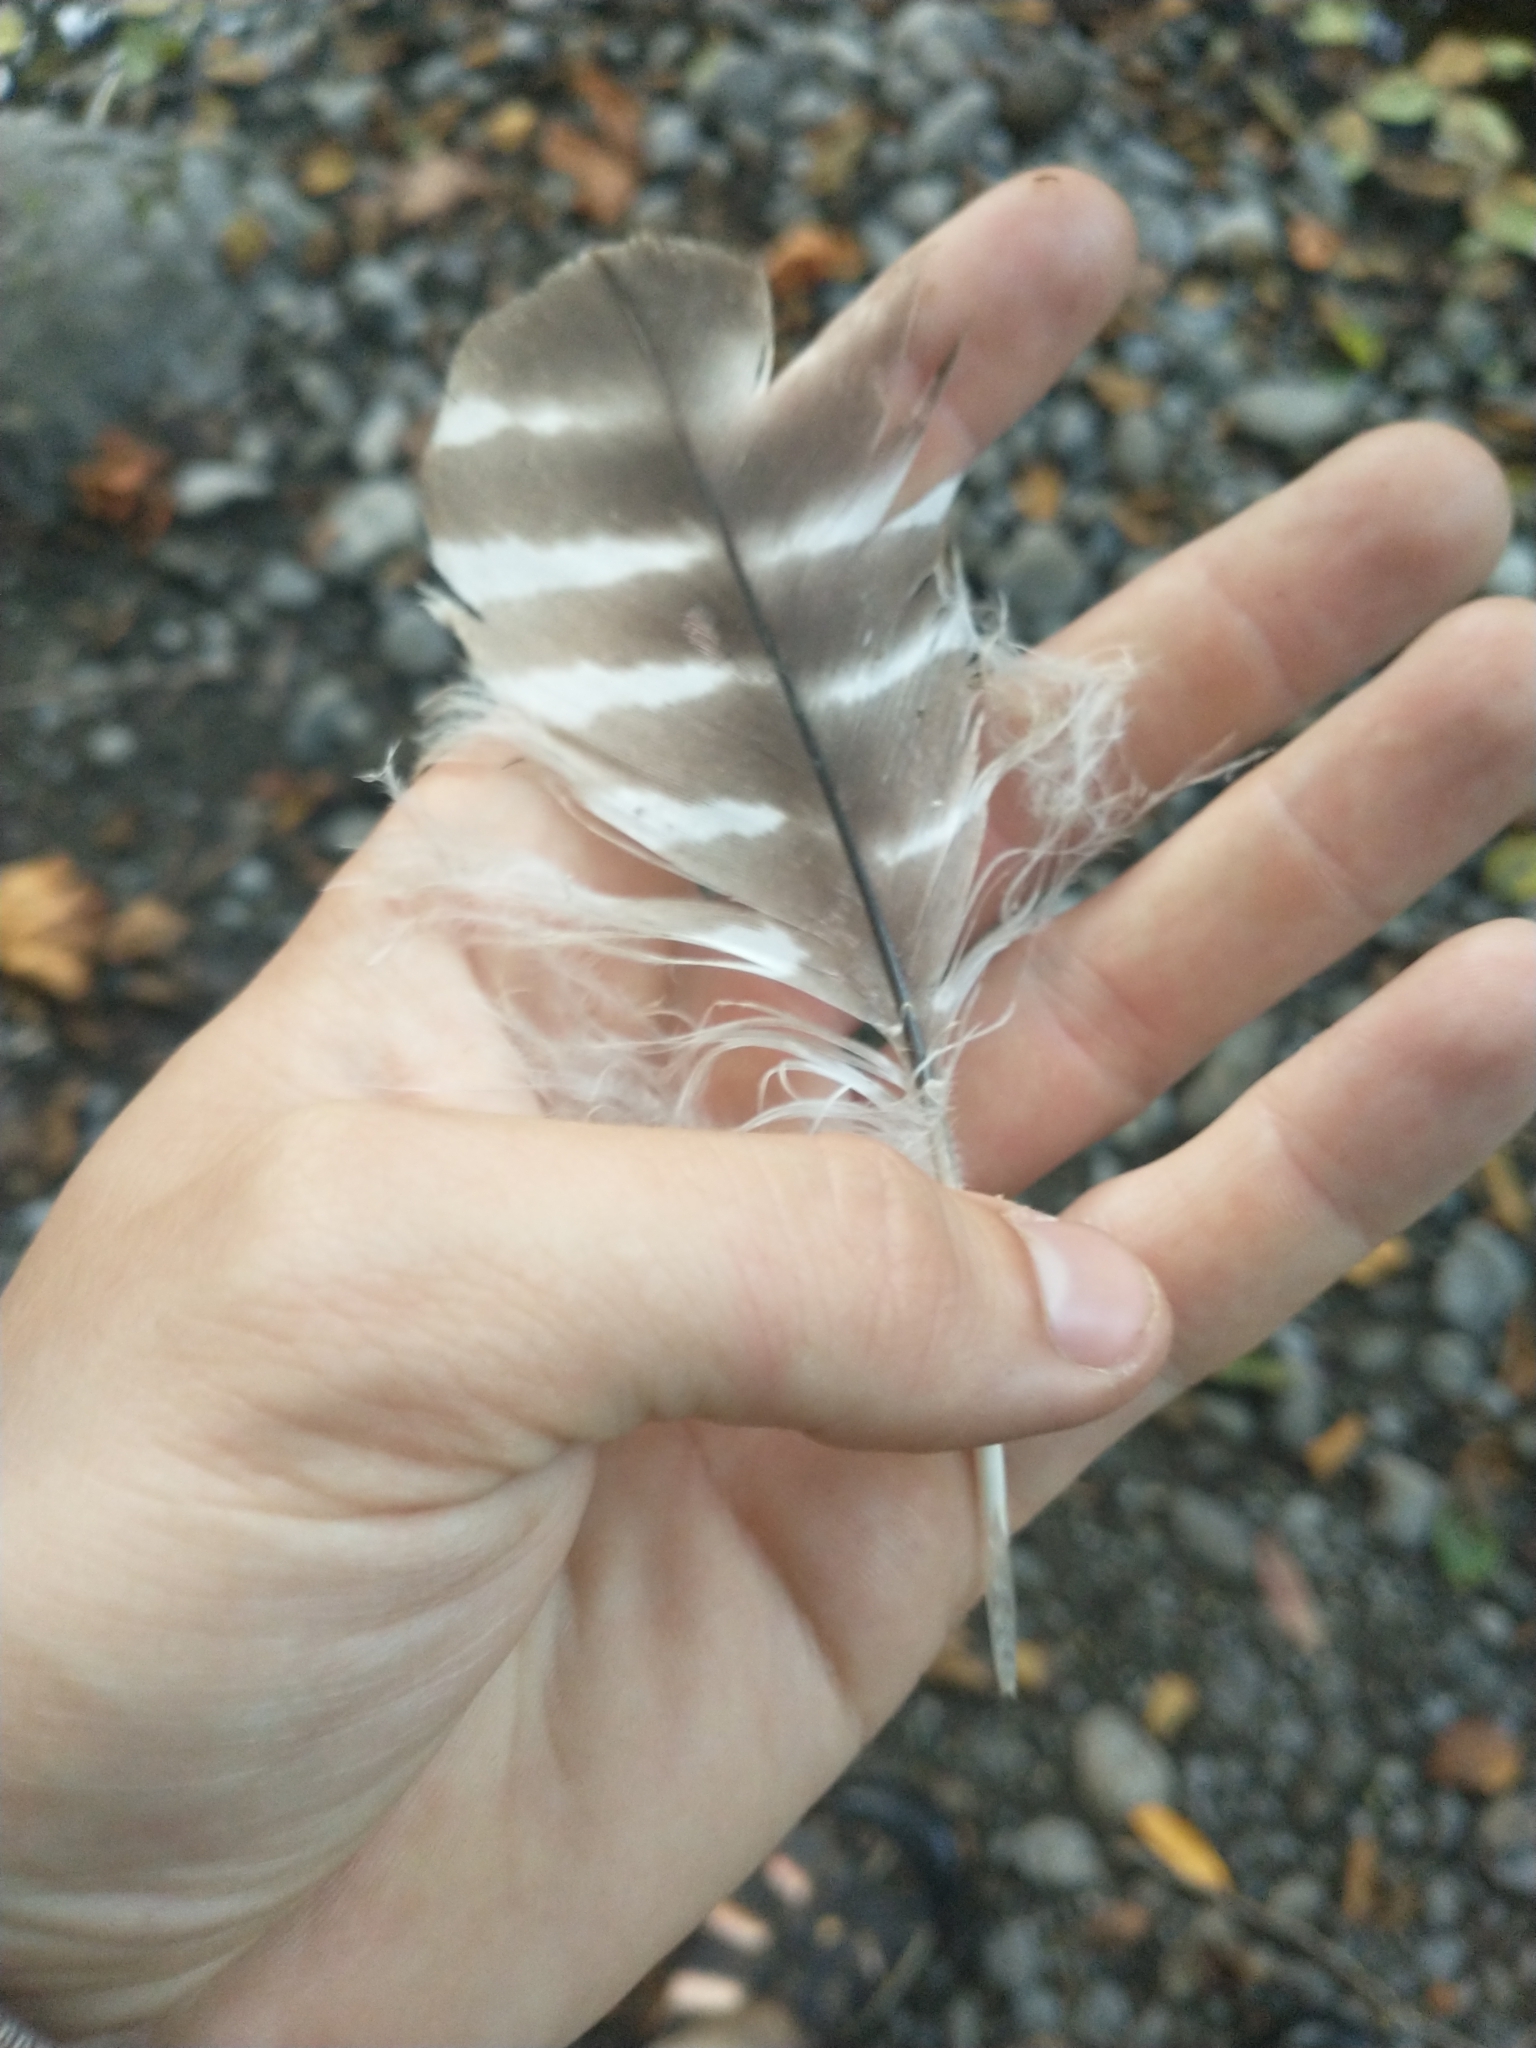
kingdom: Animalia
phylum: Chordata
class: Aves
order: Accipitriformes
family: Accipitridae
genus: Buteo
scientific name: Buteo lineatus
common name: Red-shouldered hawk
